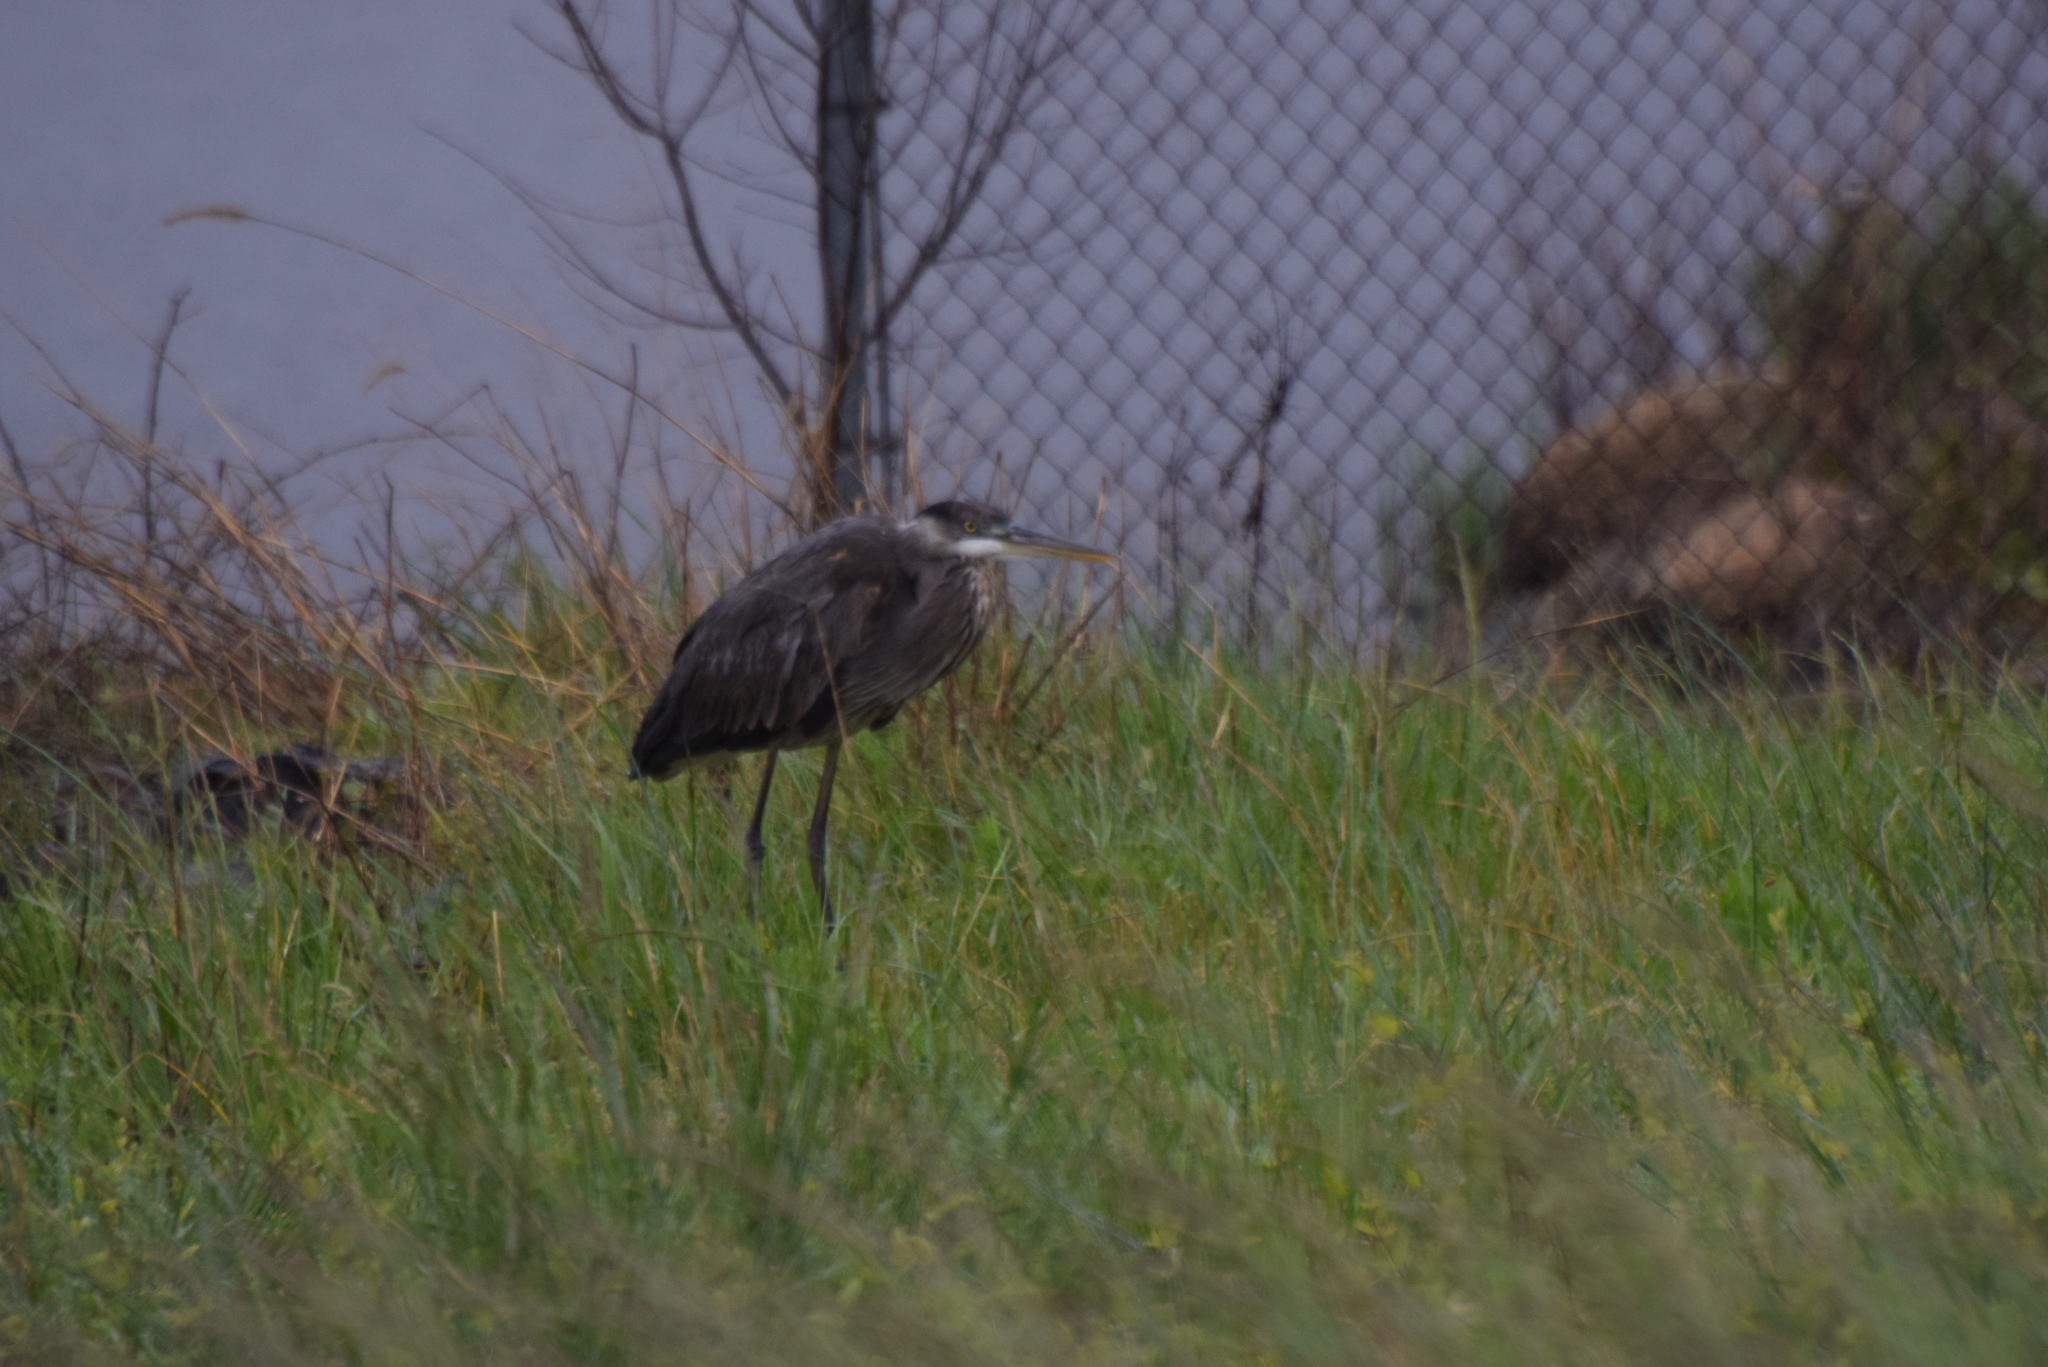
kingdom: Animalia
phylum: Chordata
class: Aves
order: Pelecaniformes
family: Ardeidae
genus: Ardea
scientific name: Ardea herodias
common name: Great blue heron
